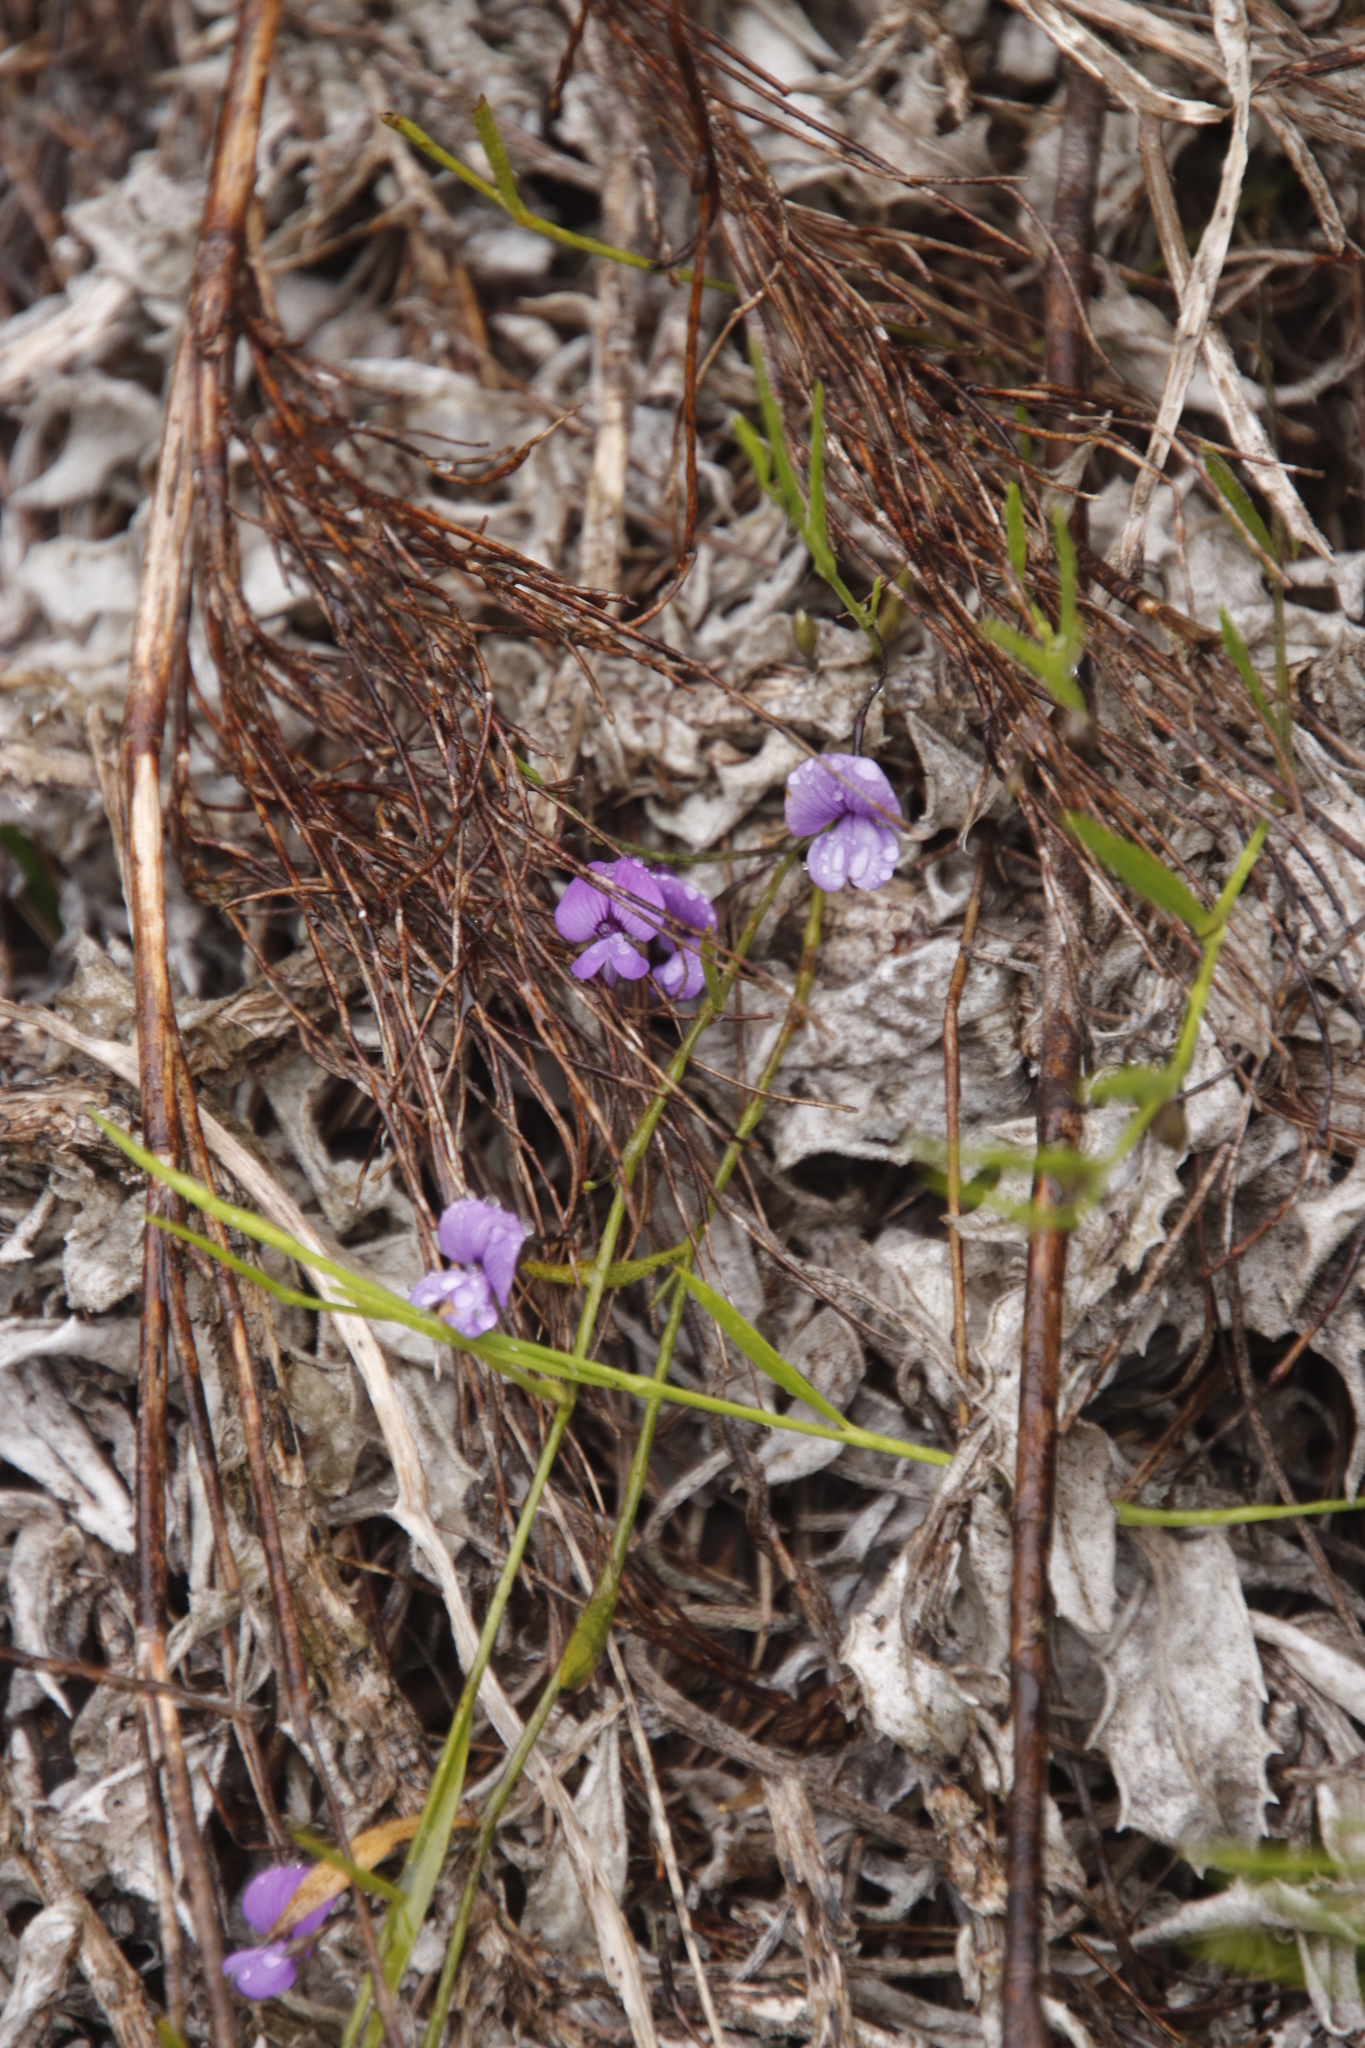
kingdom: Plantae
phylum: Tracheophyta
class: Magnoliopsida
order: Fabales
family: Fabaceae
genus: Psoralea
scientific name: Psoralea laxa
